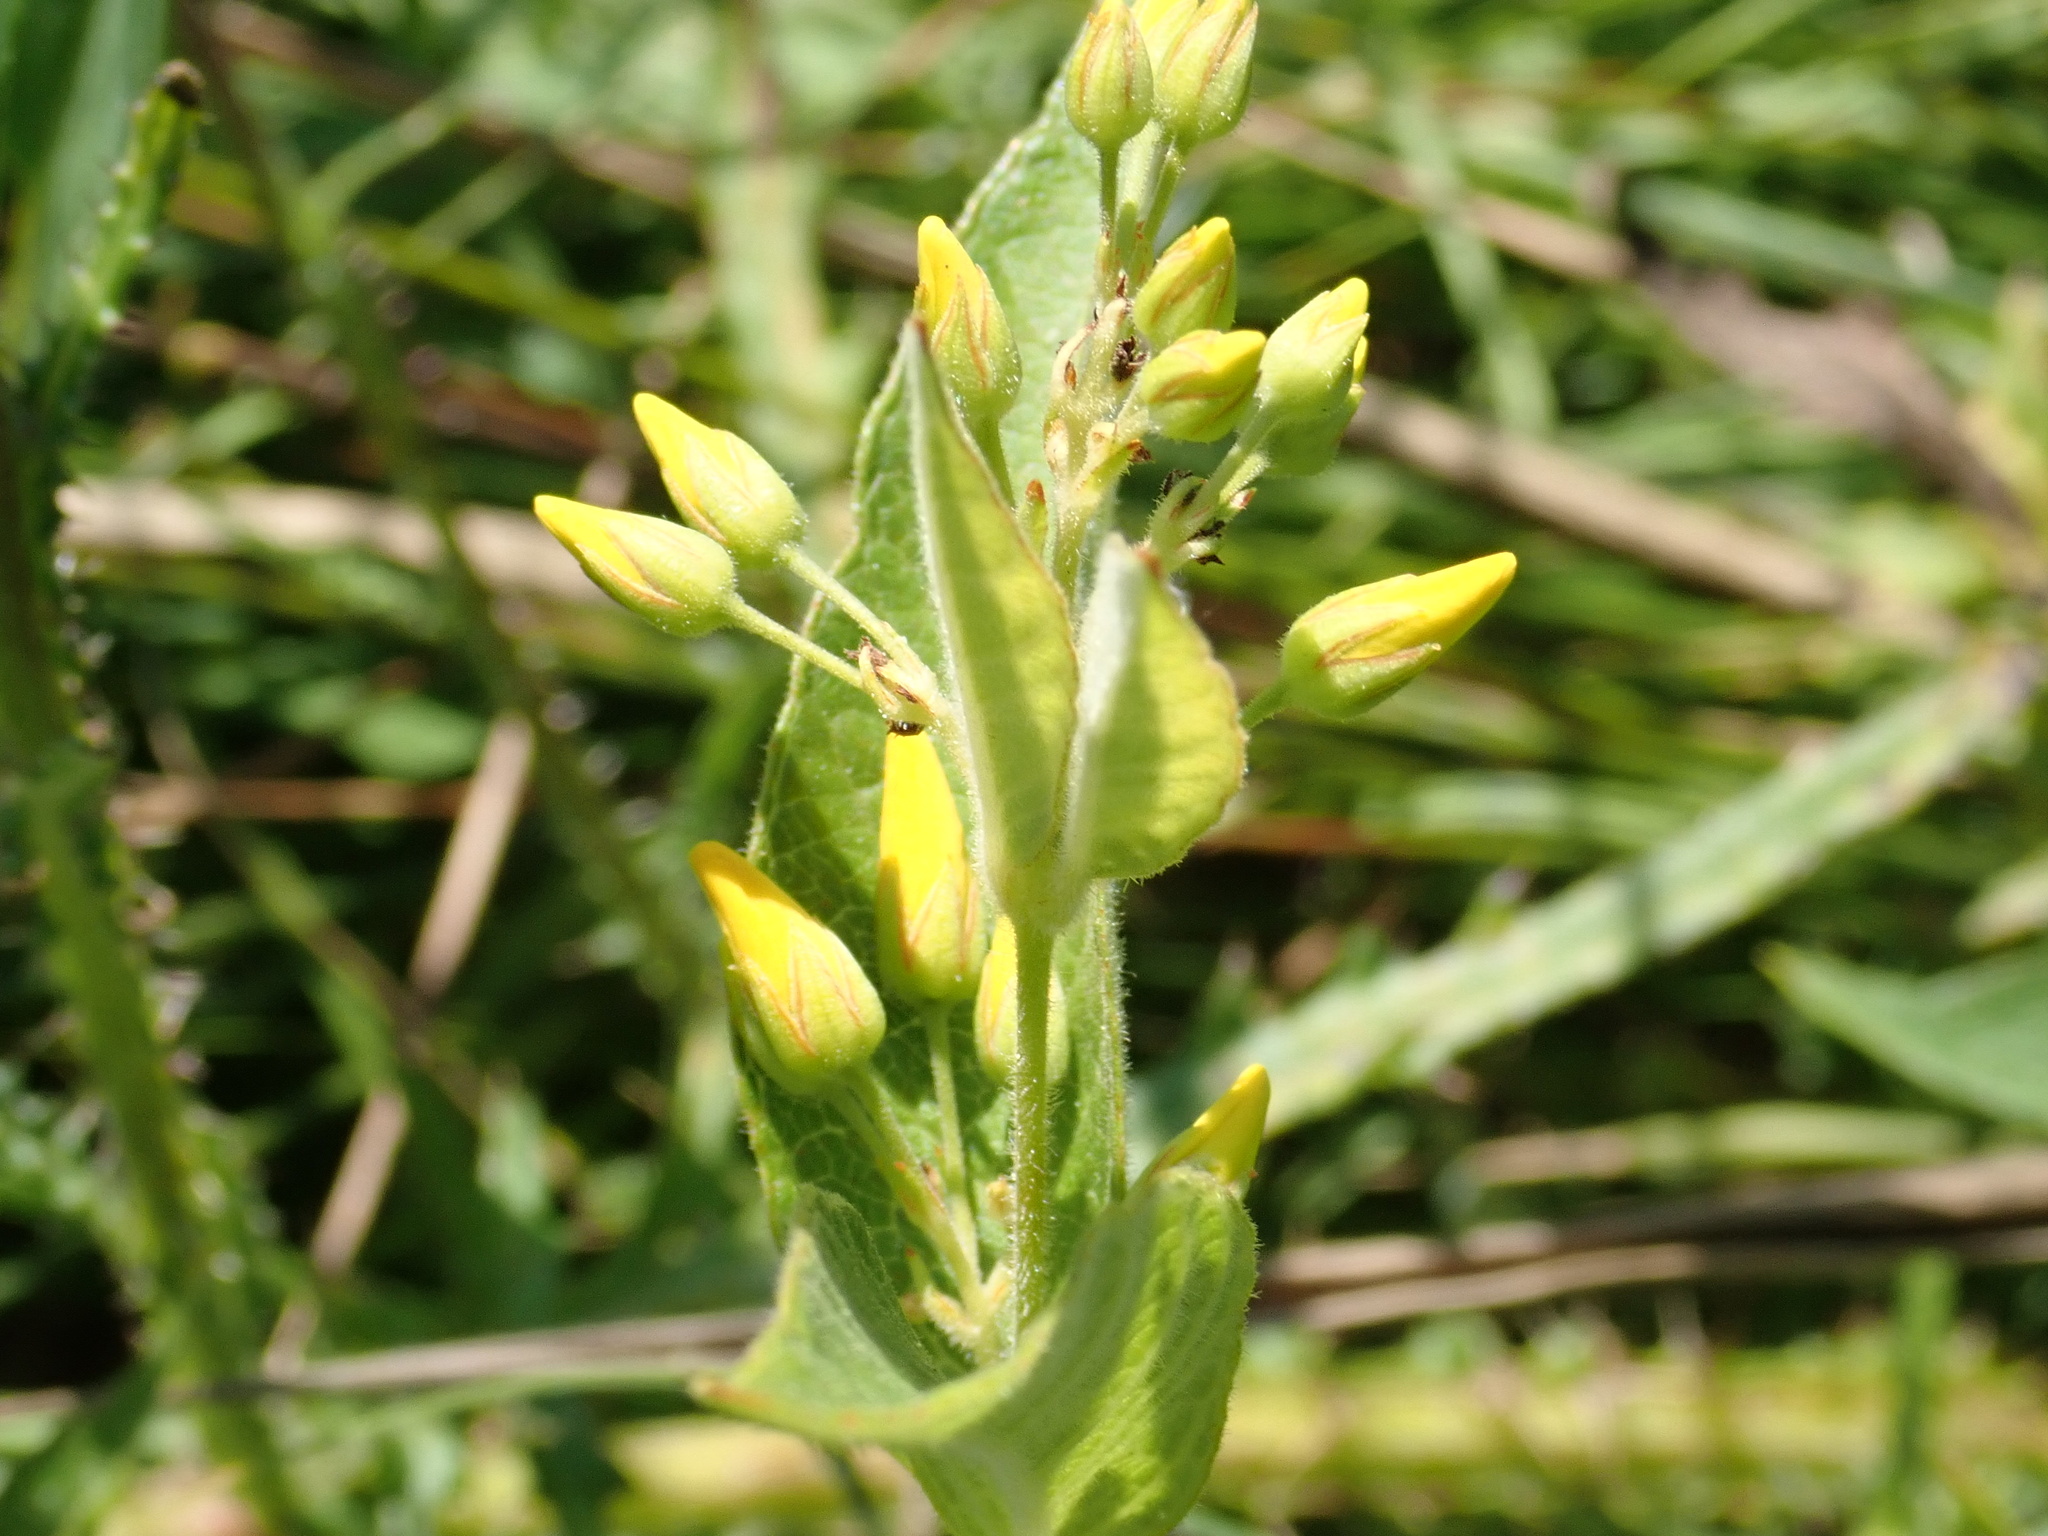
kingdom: Plantae
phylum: Tracheophyta
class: Magnoliopsida
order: Ericales
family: Primulaceae
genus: Lysimachia
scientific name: Lysimachia vulgaris
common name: Yellow loosestrife
